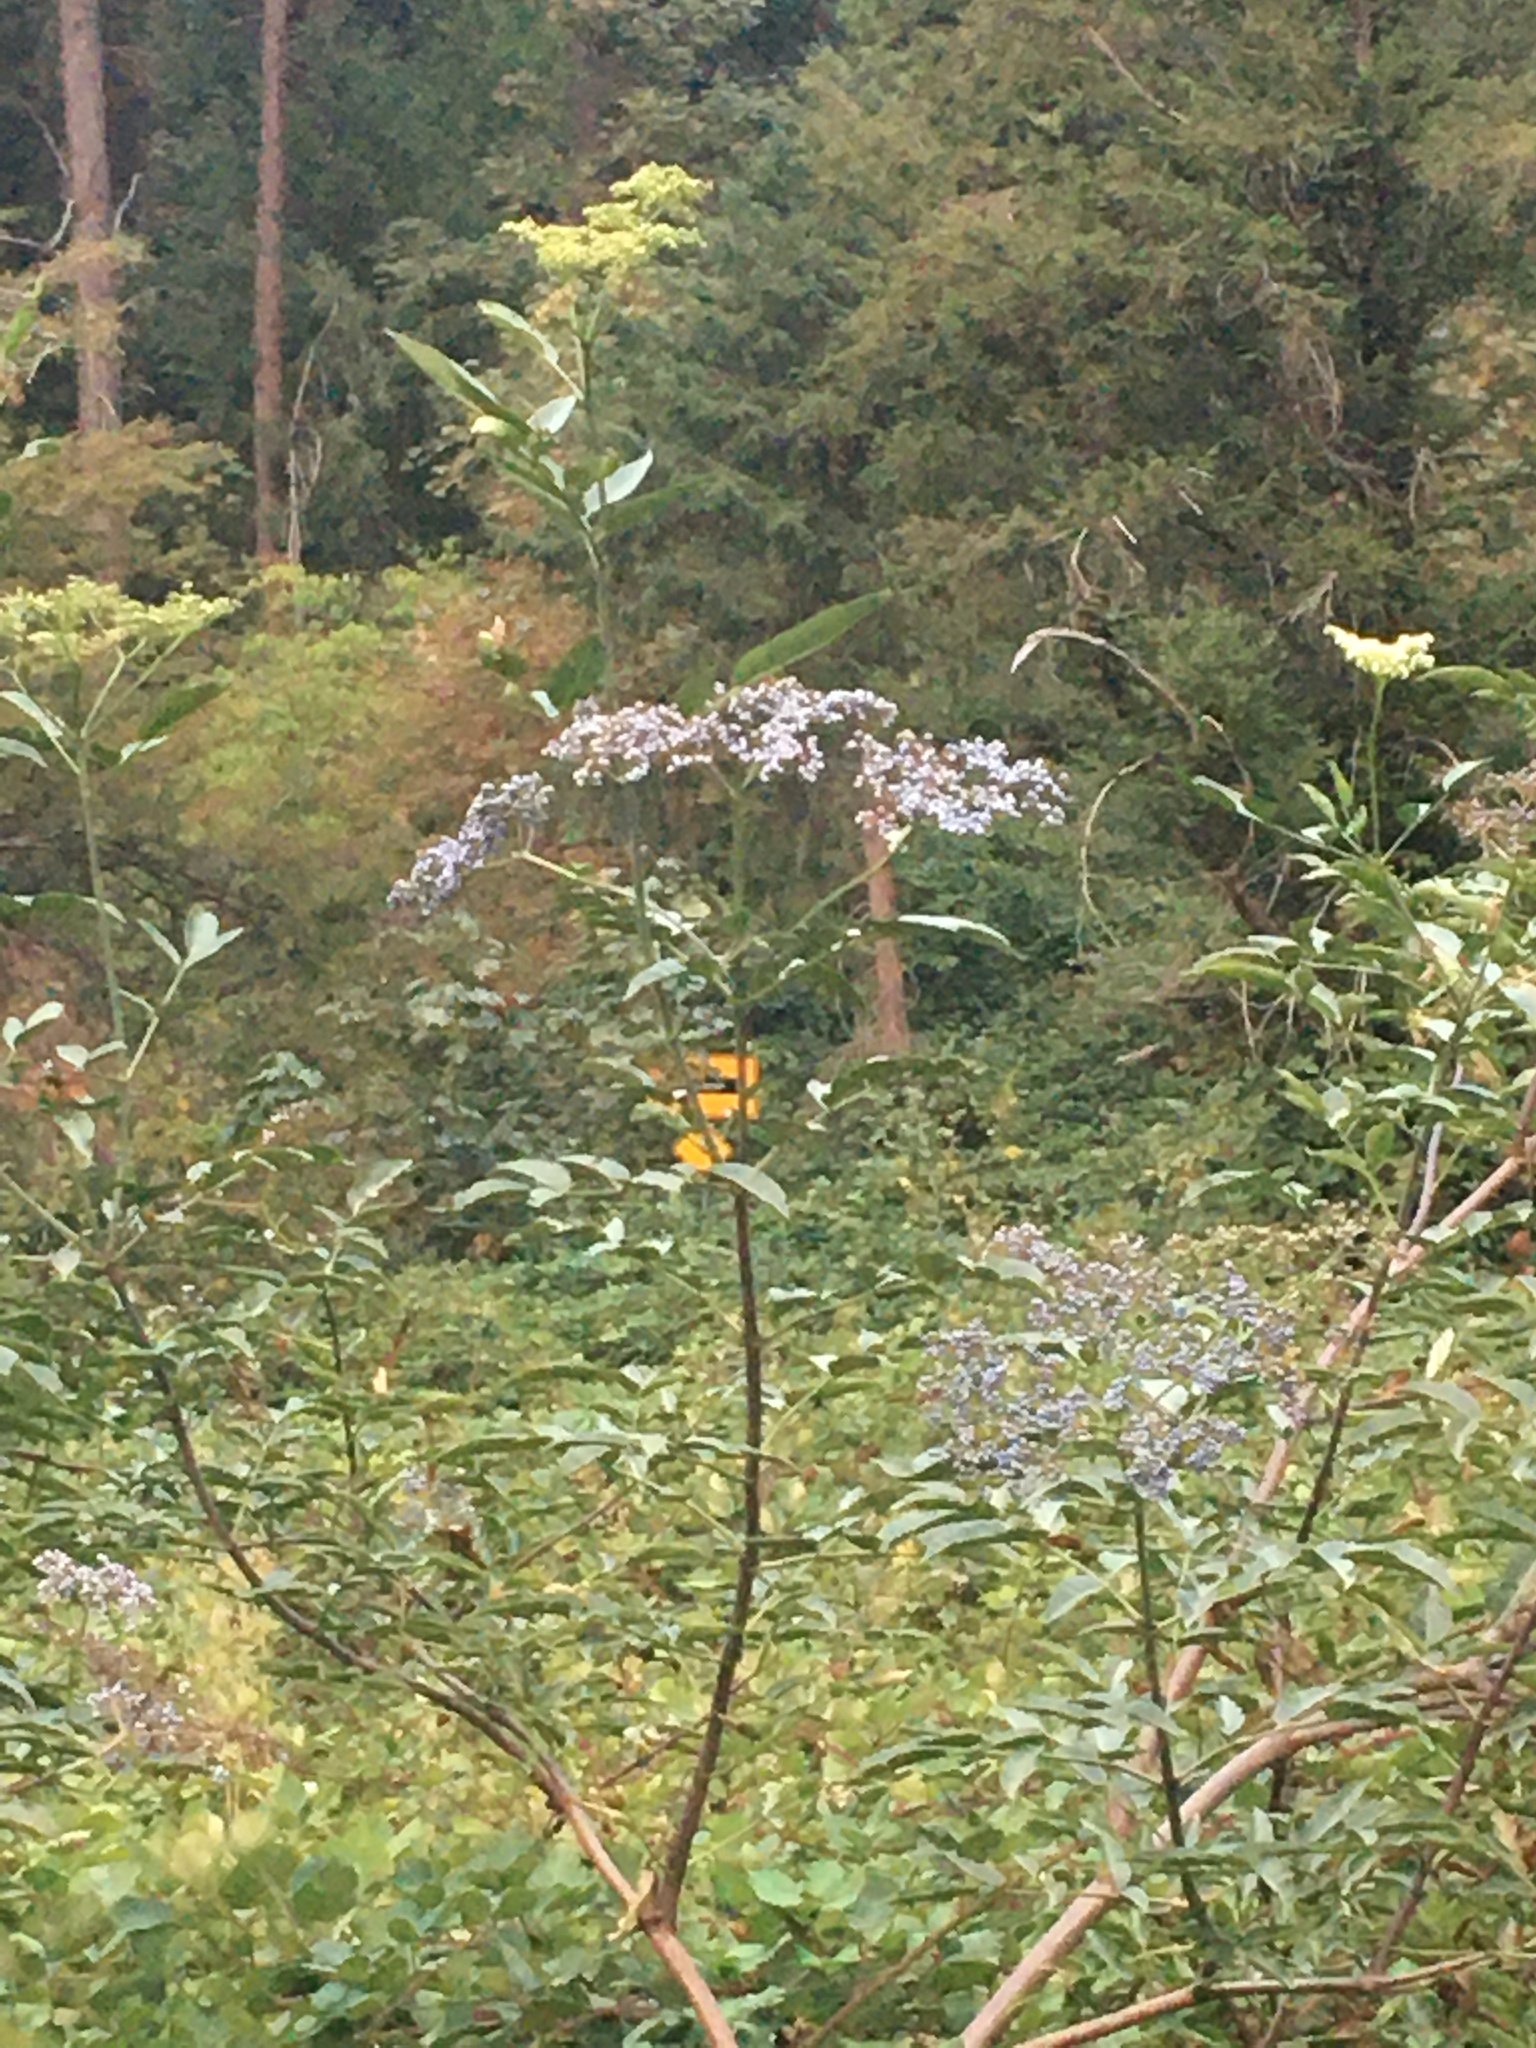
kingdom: Plantae
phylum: Tracheophyta
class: Magnoliopsida
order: Dipsacales
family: Viburnaceae
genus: Sambucus
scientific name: Sambucus cerulea
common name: Blue elder
